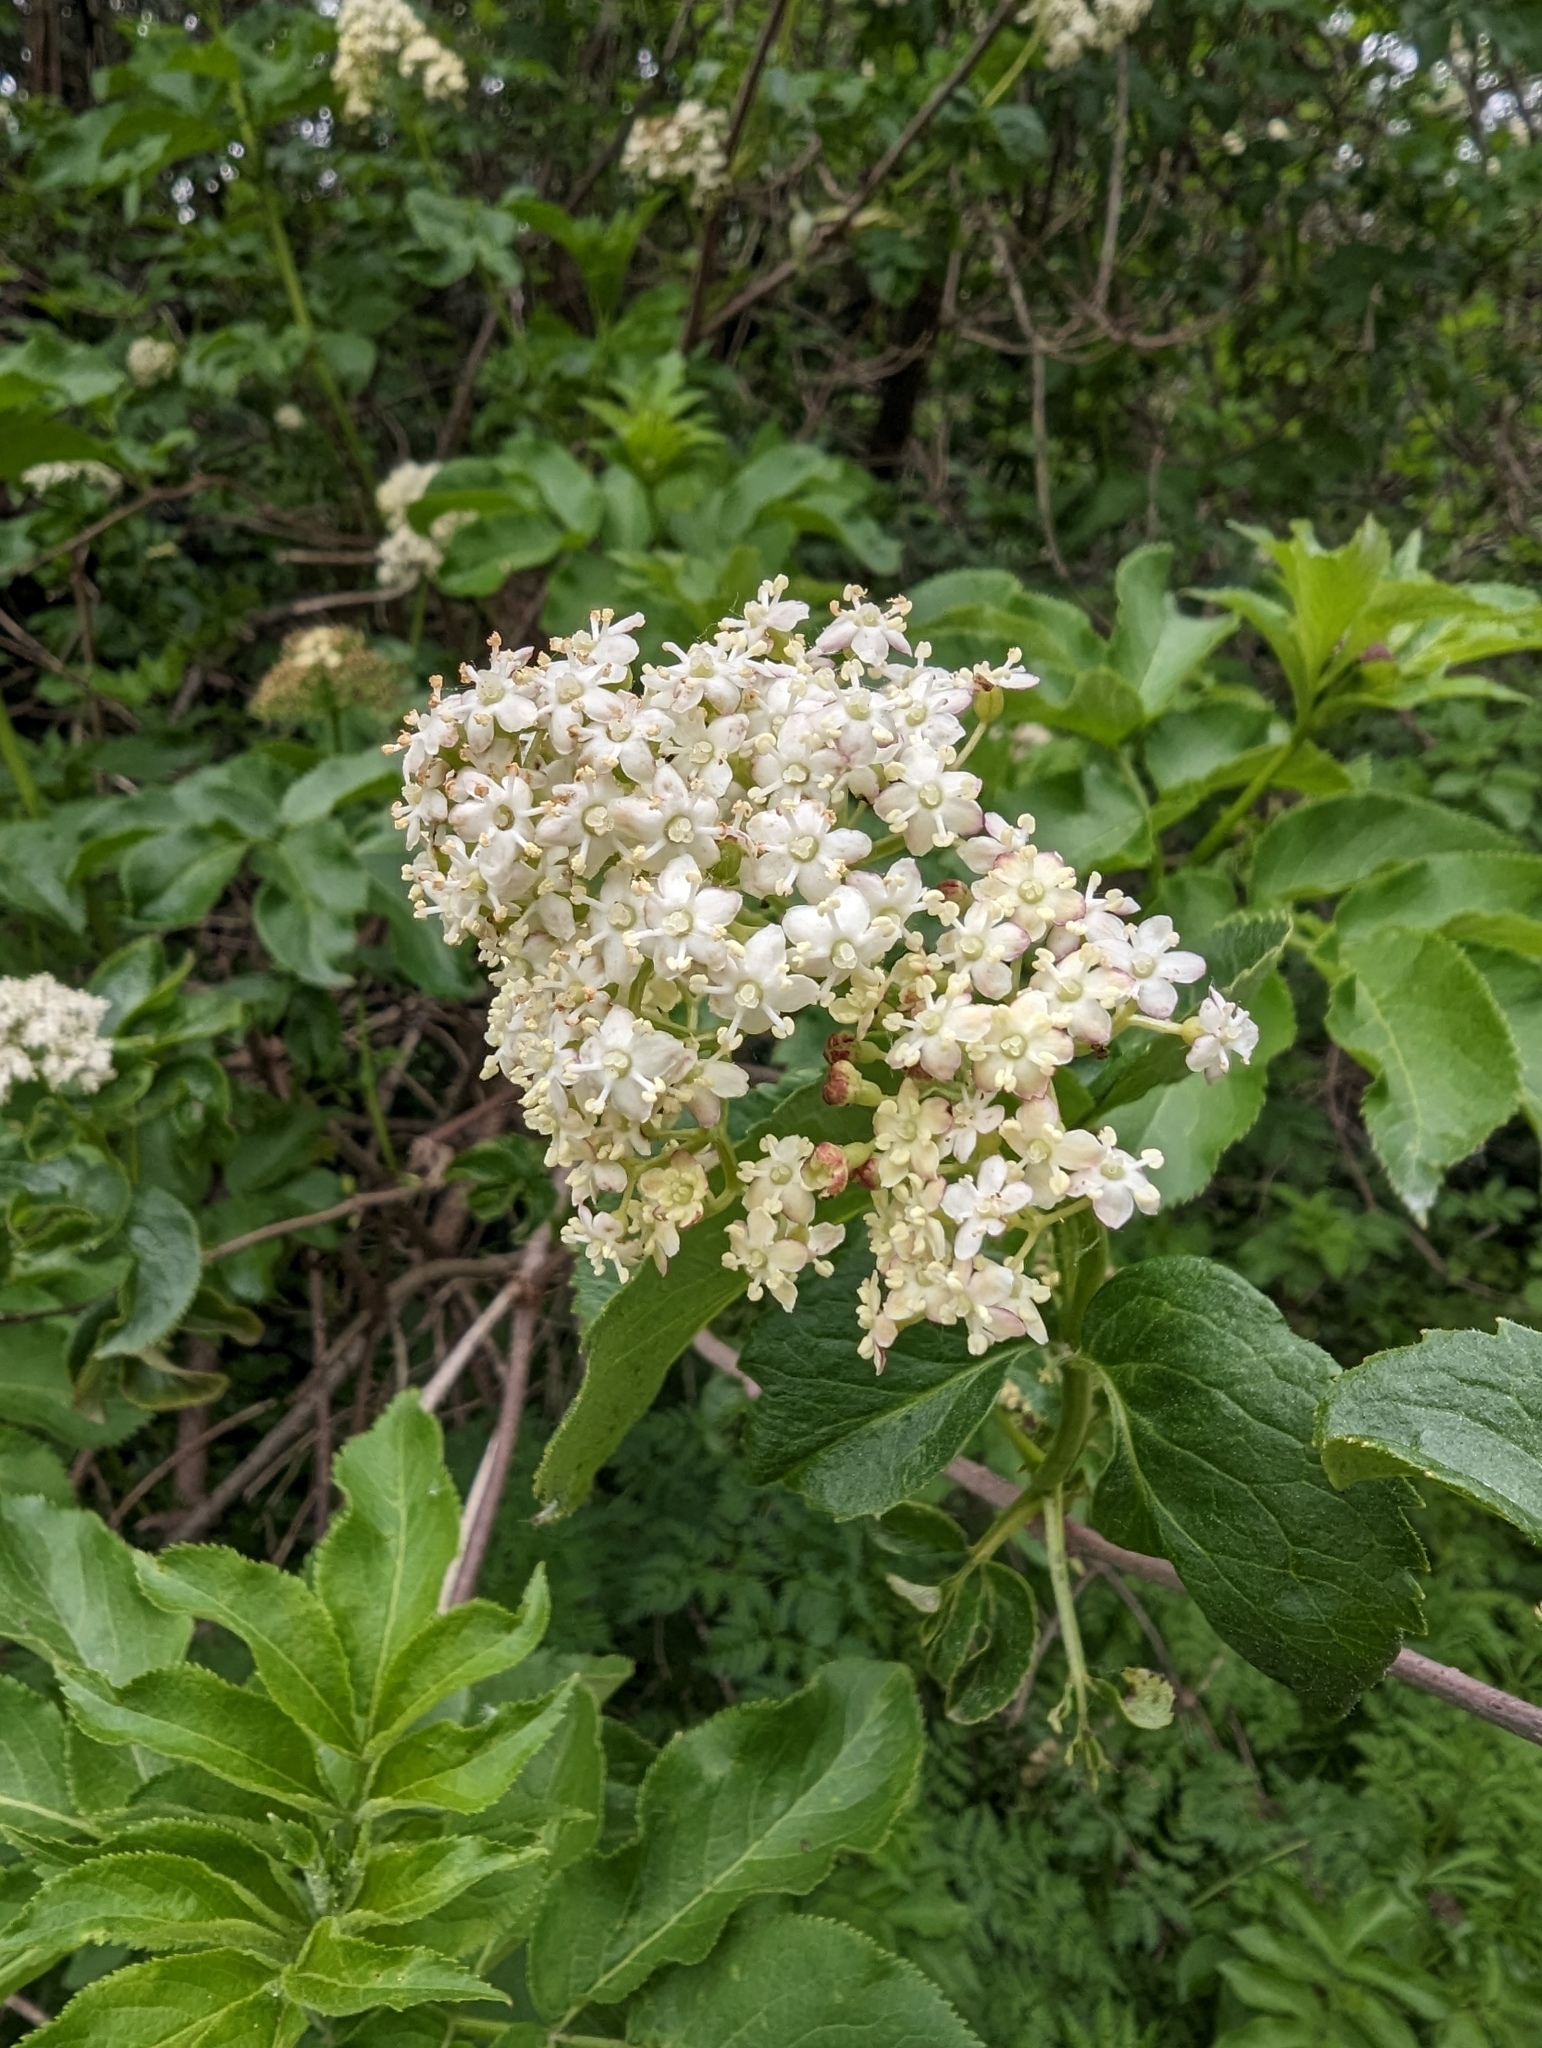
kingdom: Plantae
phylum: Tracheophyta
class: Magnoliopsida
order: Dipsacales
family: Viburnaceae
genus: Sambucus
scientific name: Sambucus racemosa
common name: Red-berried elder
